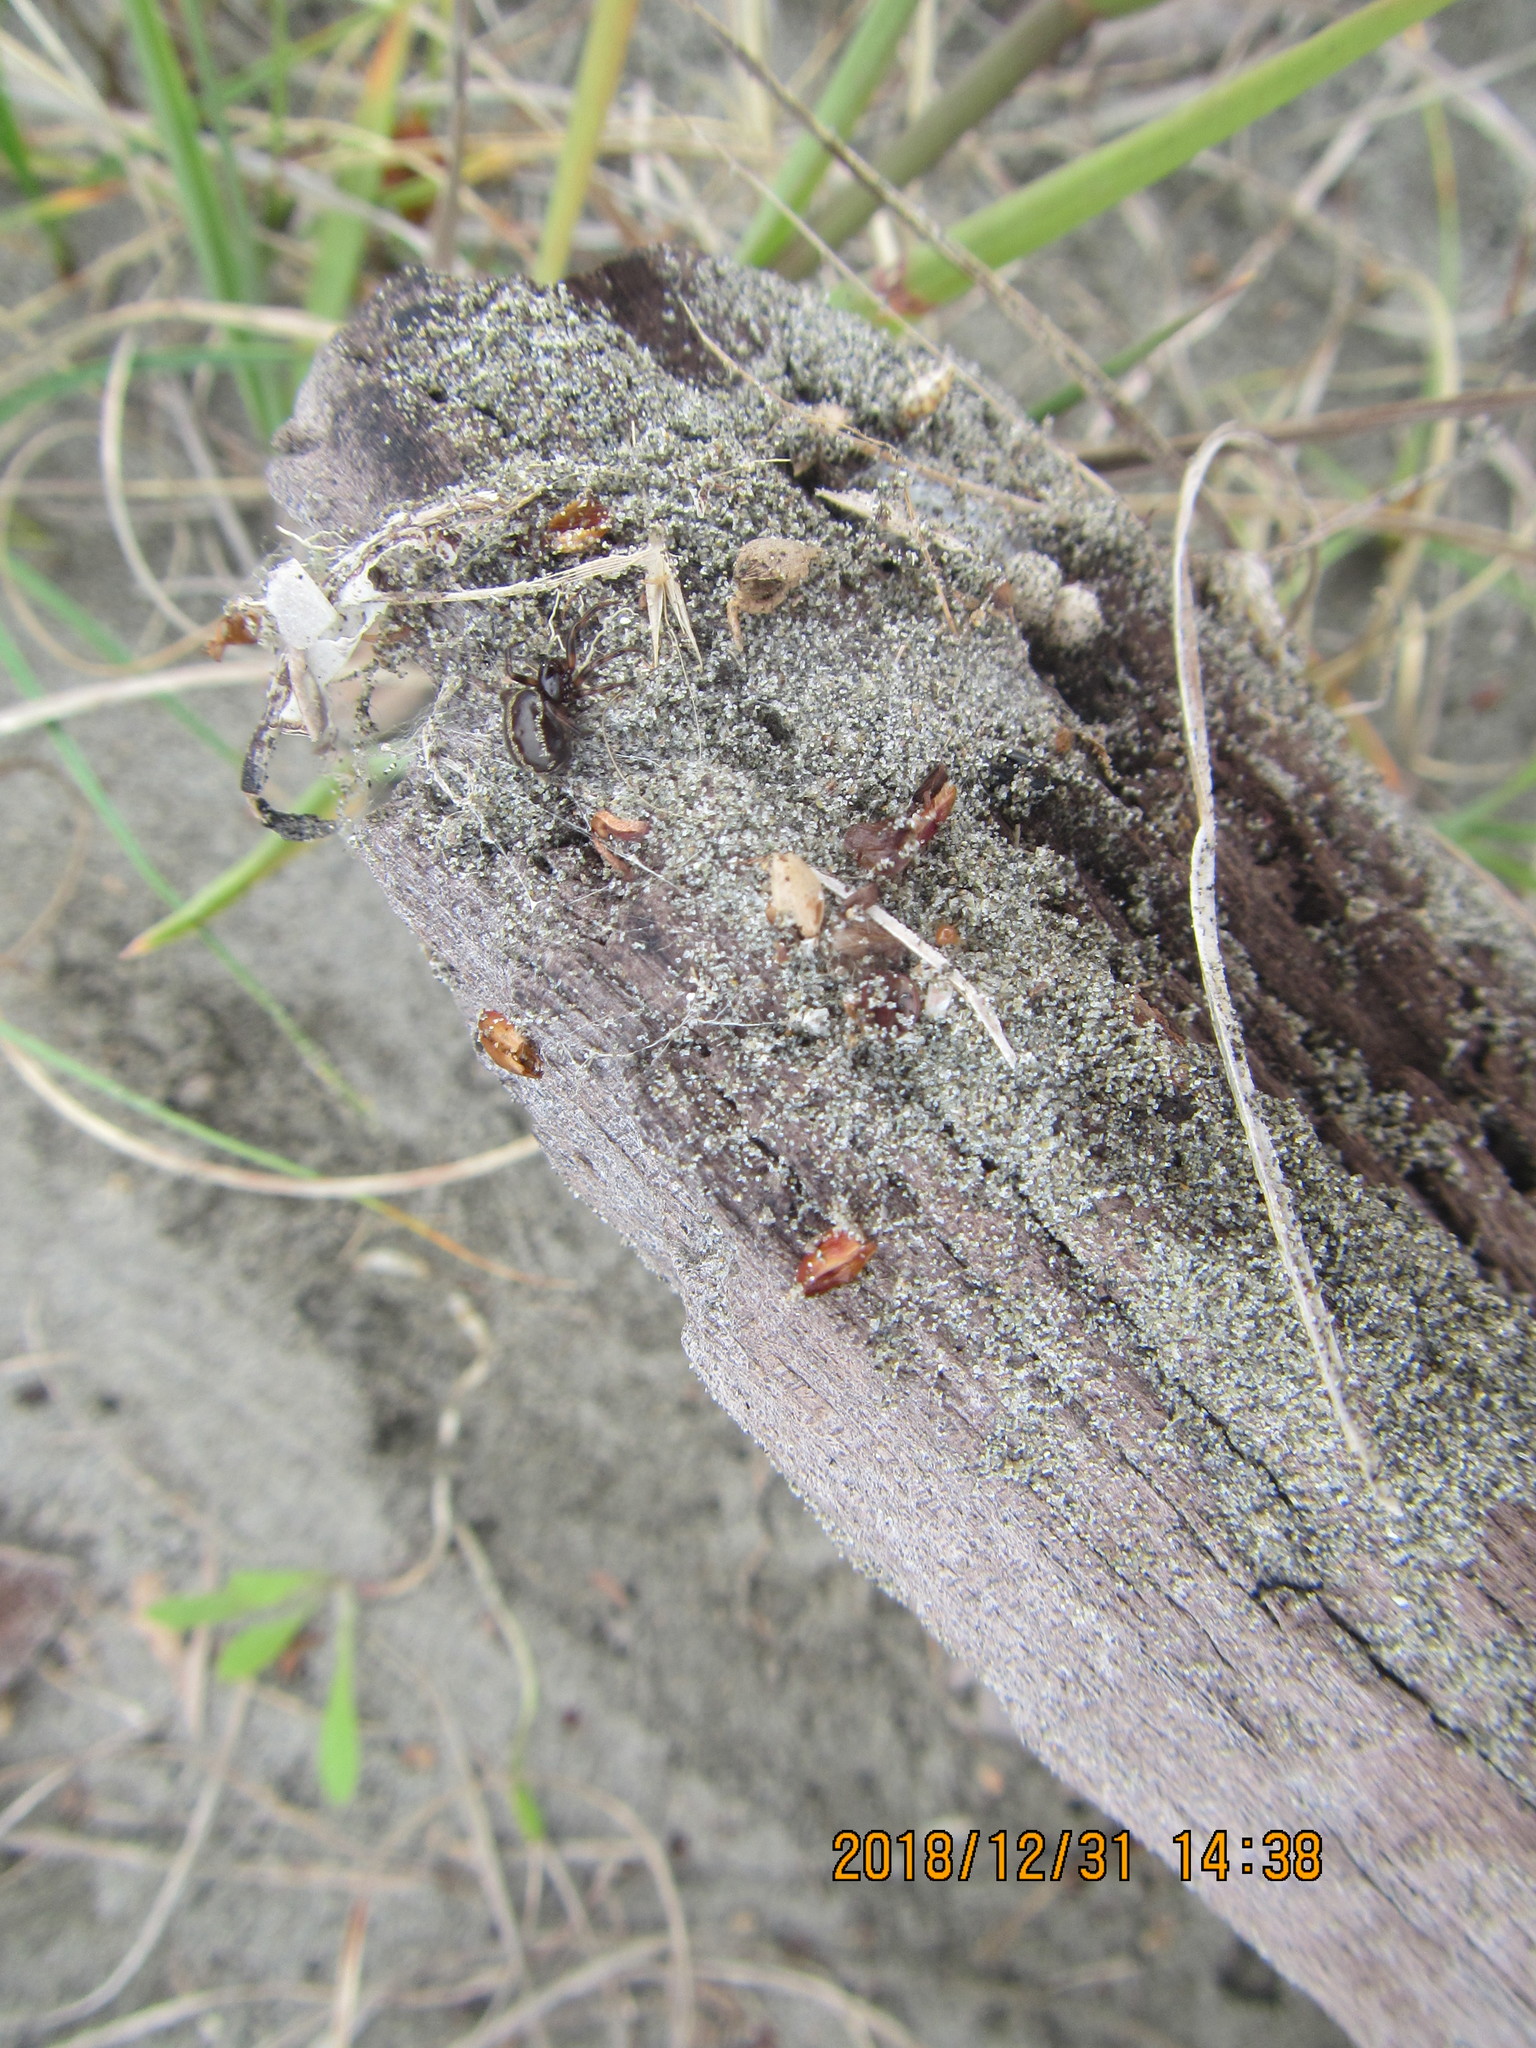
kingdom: Animalia
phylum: Arthropoda
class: Arachnida
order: Araneae
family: Theridiidae
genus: Steatoda
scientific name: Steatoda lepida
